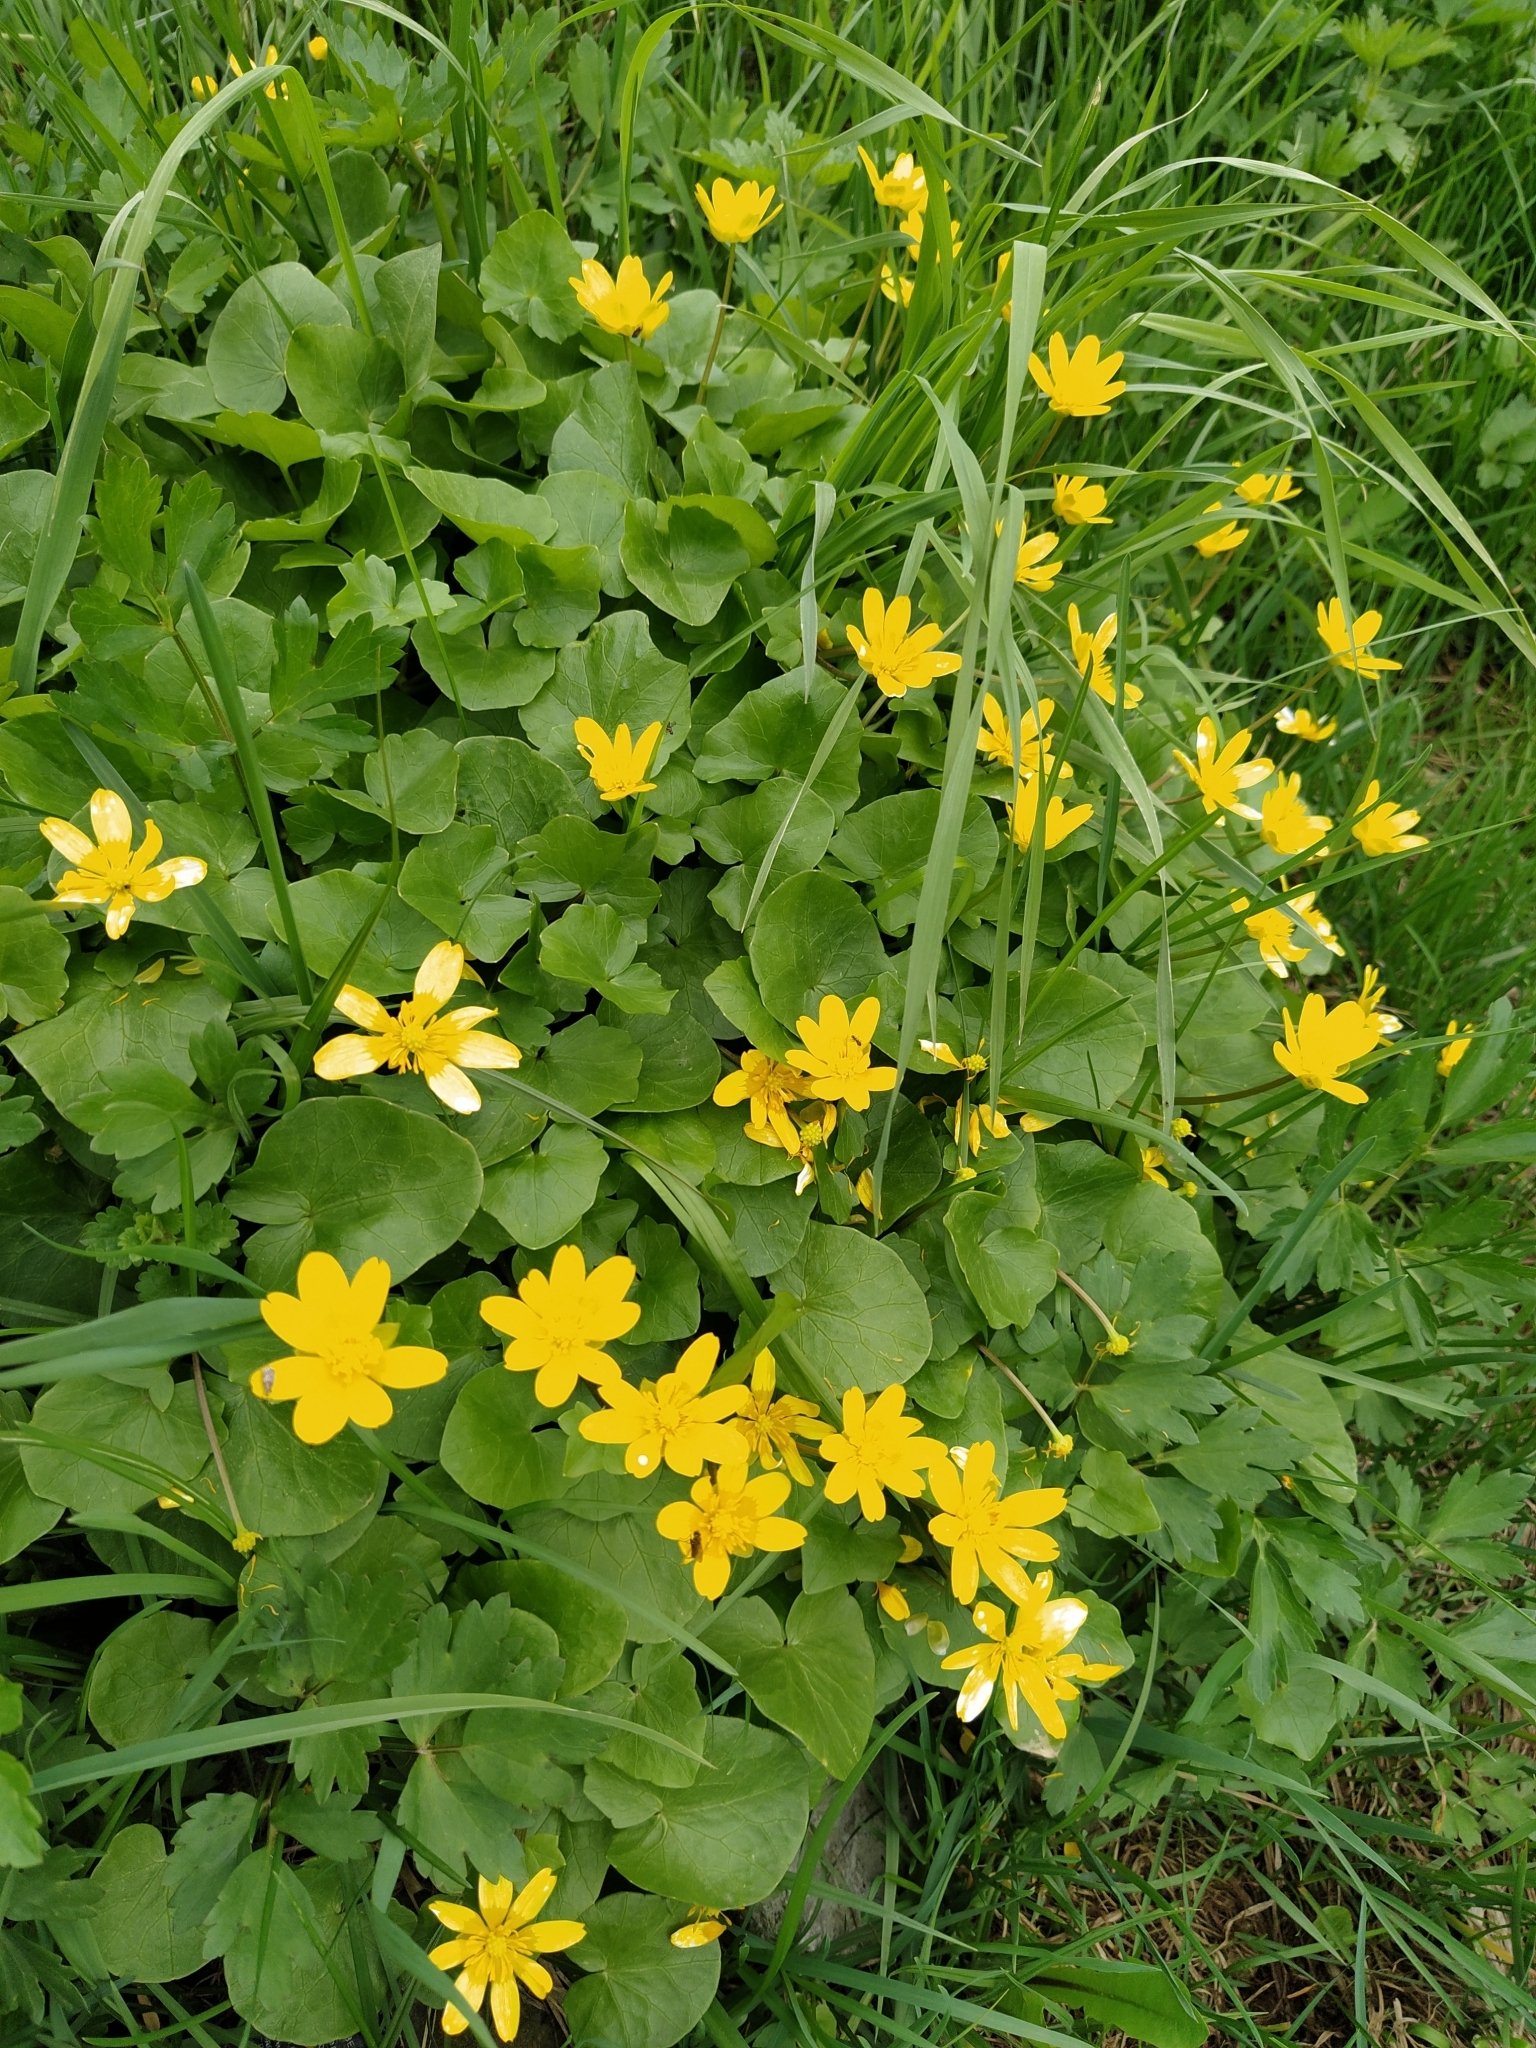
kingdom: Plantae
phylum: Tracheophyta
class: Magnoliopsida
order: Ranunculales
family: Ranunculaceae
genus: Ficaria
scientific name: Ficaria verna
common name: Lesser celandine
